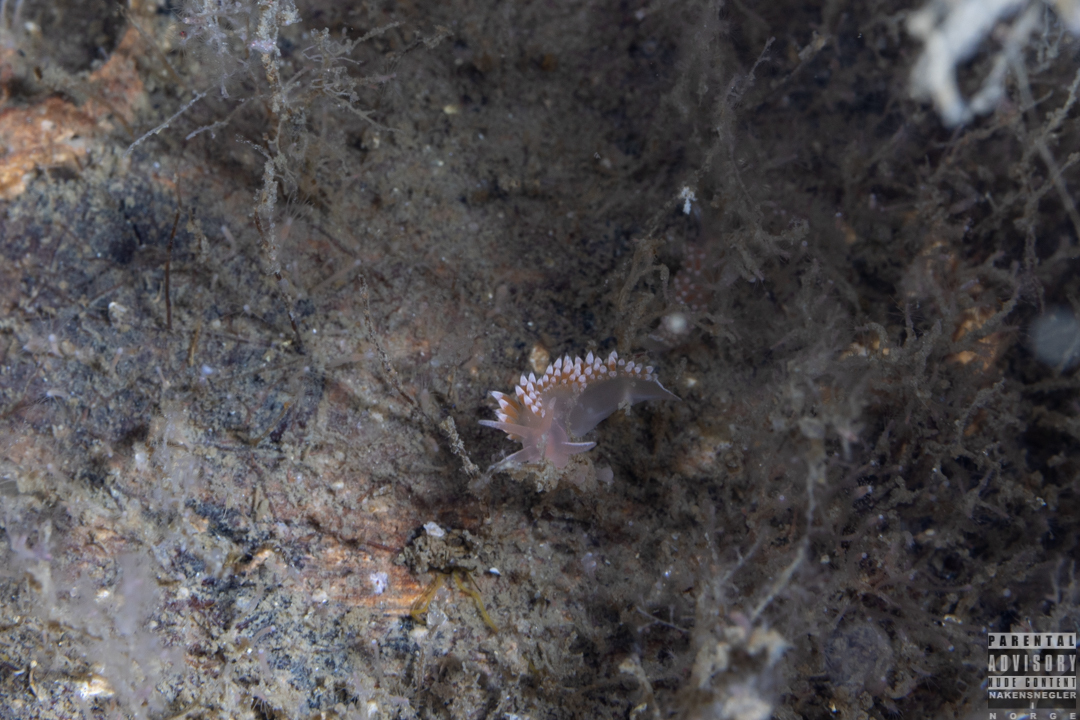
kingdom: Animalia
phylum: Mollusca
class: Gastropoda
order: Nudibranchia
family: Coryphellidae
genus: Coryphella
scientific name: Coryphella verrucosa
